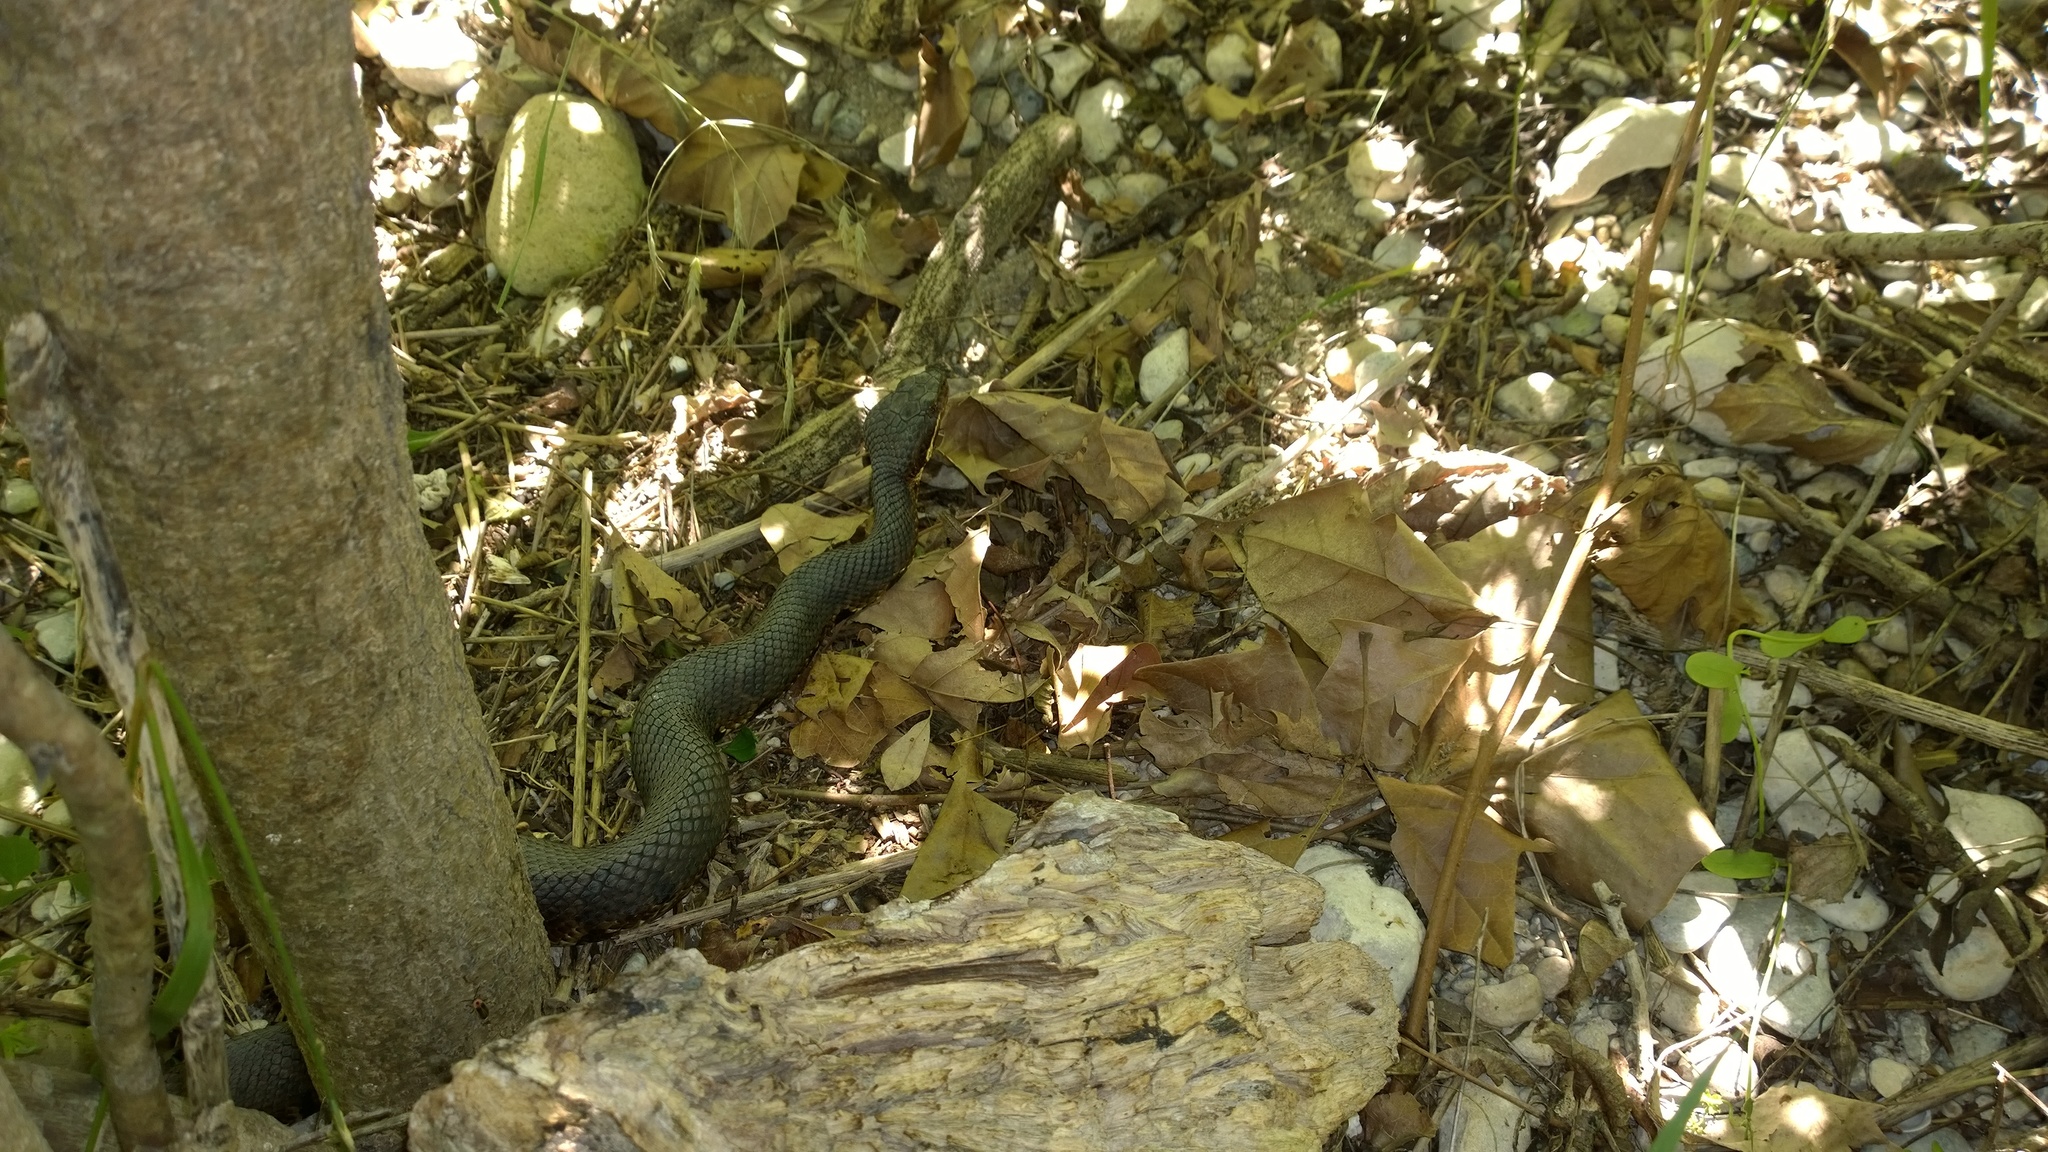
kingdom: Animalia
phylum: Chordata
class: Squamata
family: Viperidae
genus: Agkistrodon
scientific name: Agkistrodon piscivorus
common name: Cottonmouth
